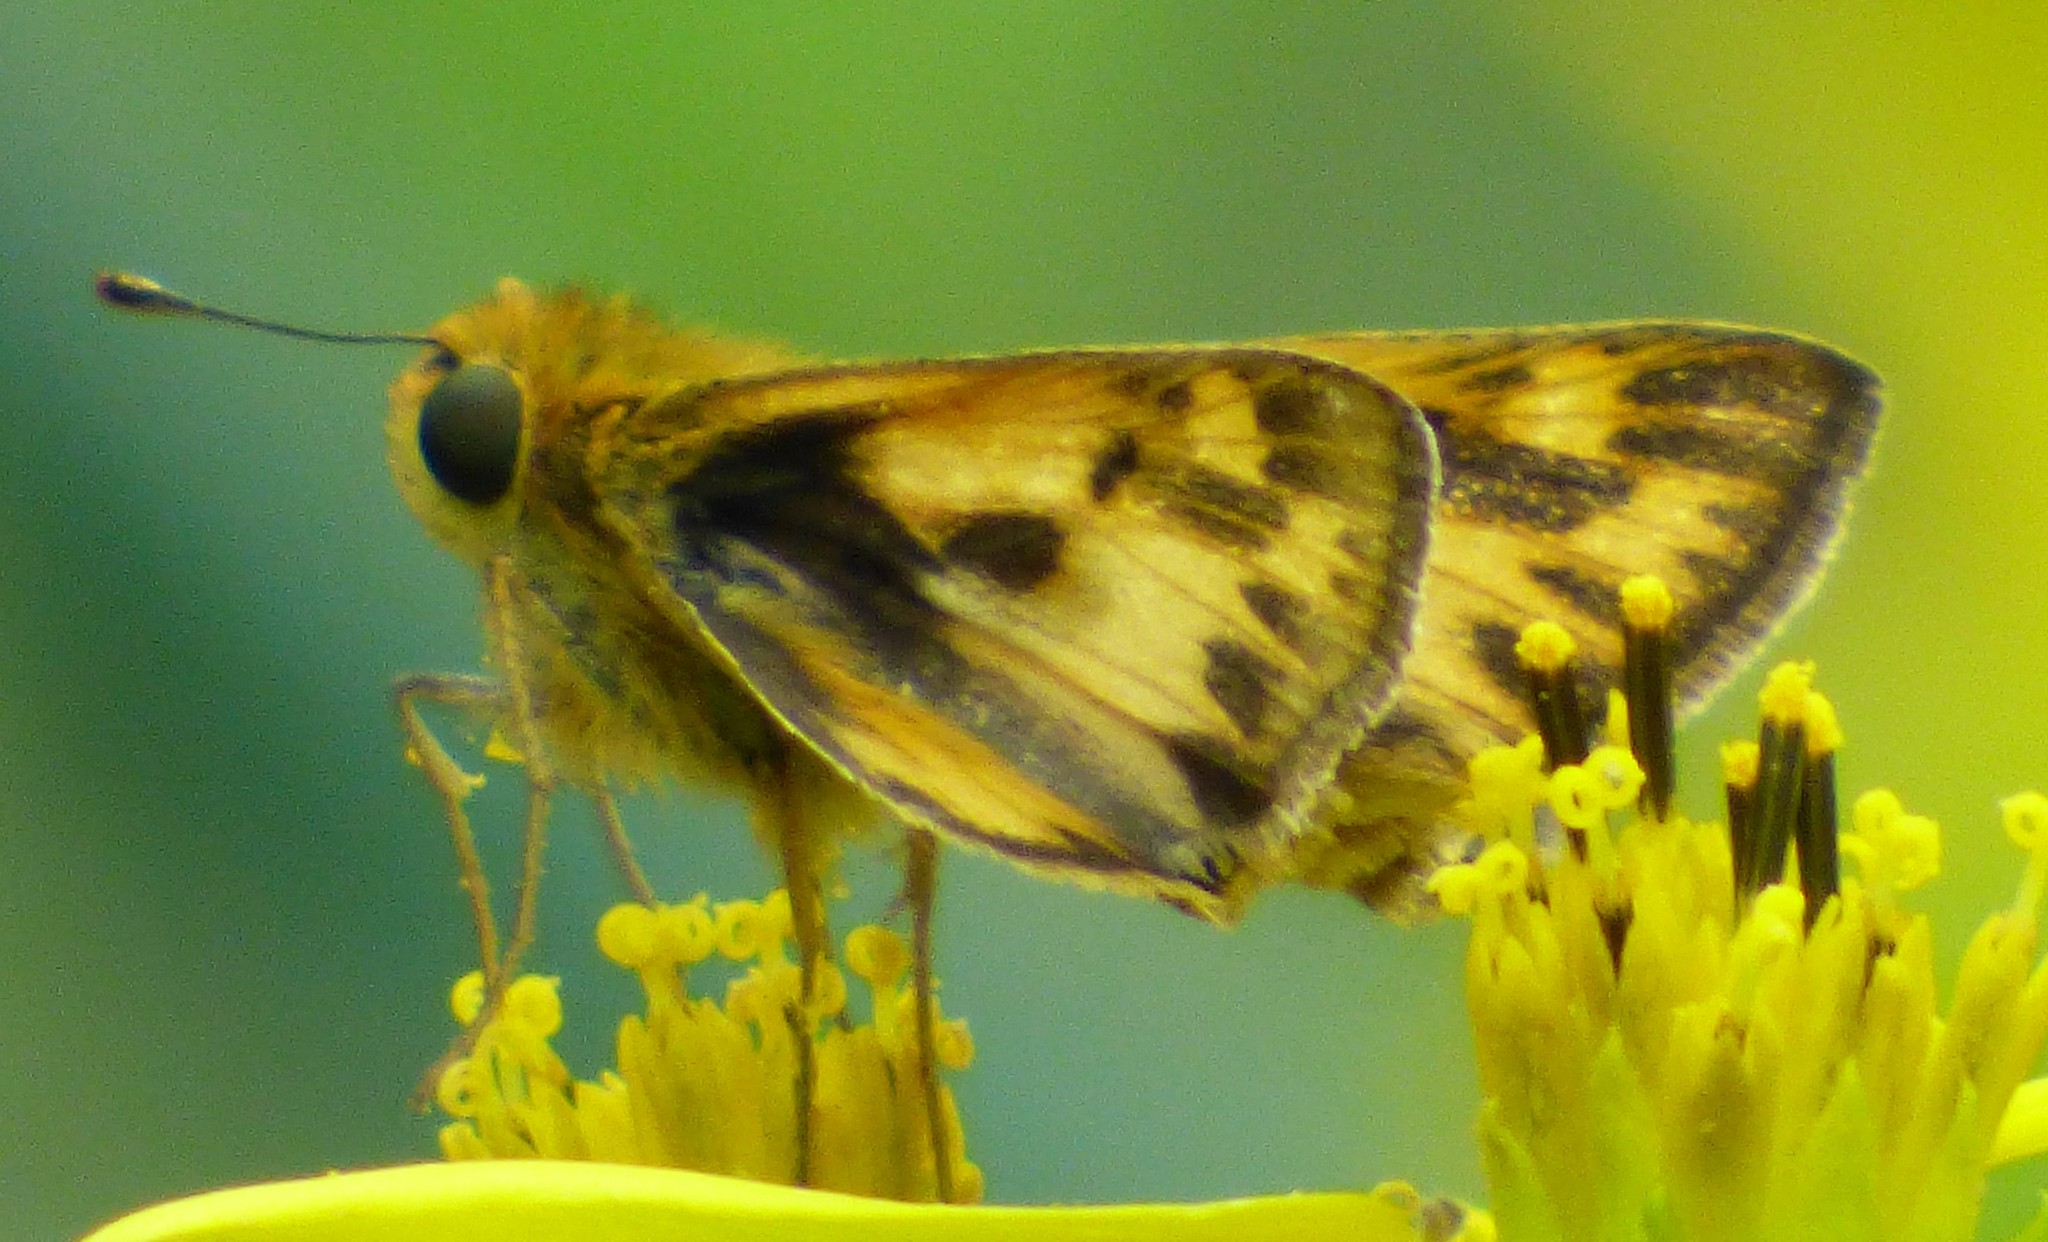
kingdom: Animalia
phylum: Arthropoda
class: Insecta
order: Lepidoptera
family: Hesperiidae
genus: Hylephila
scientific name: Hylephila phyleus
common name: Fiery skipper
